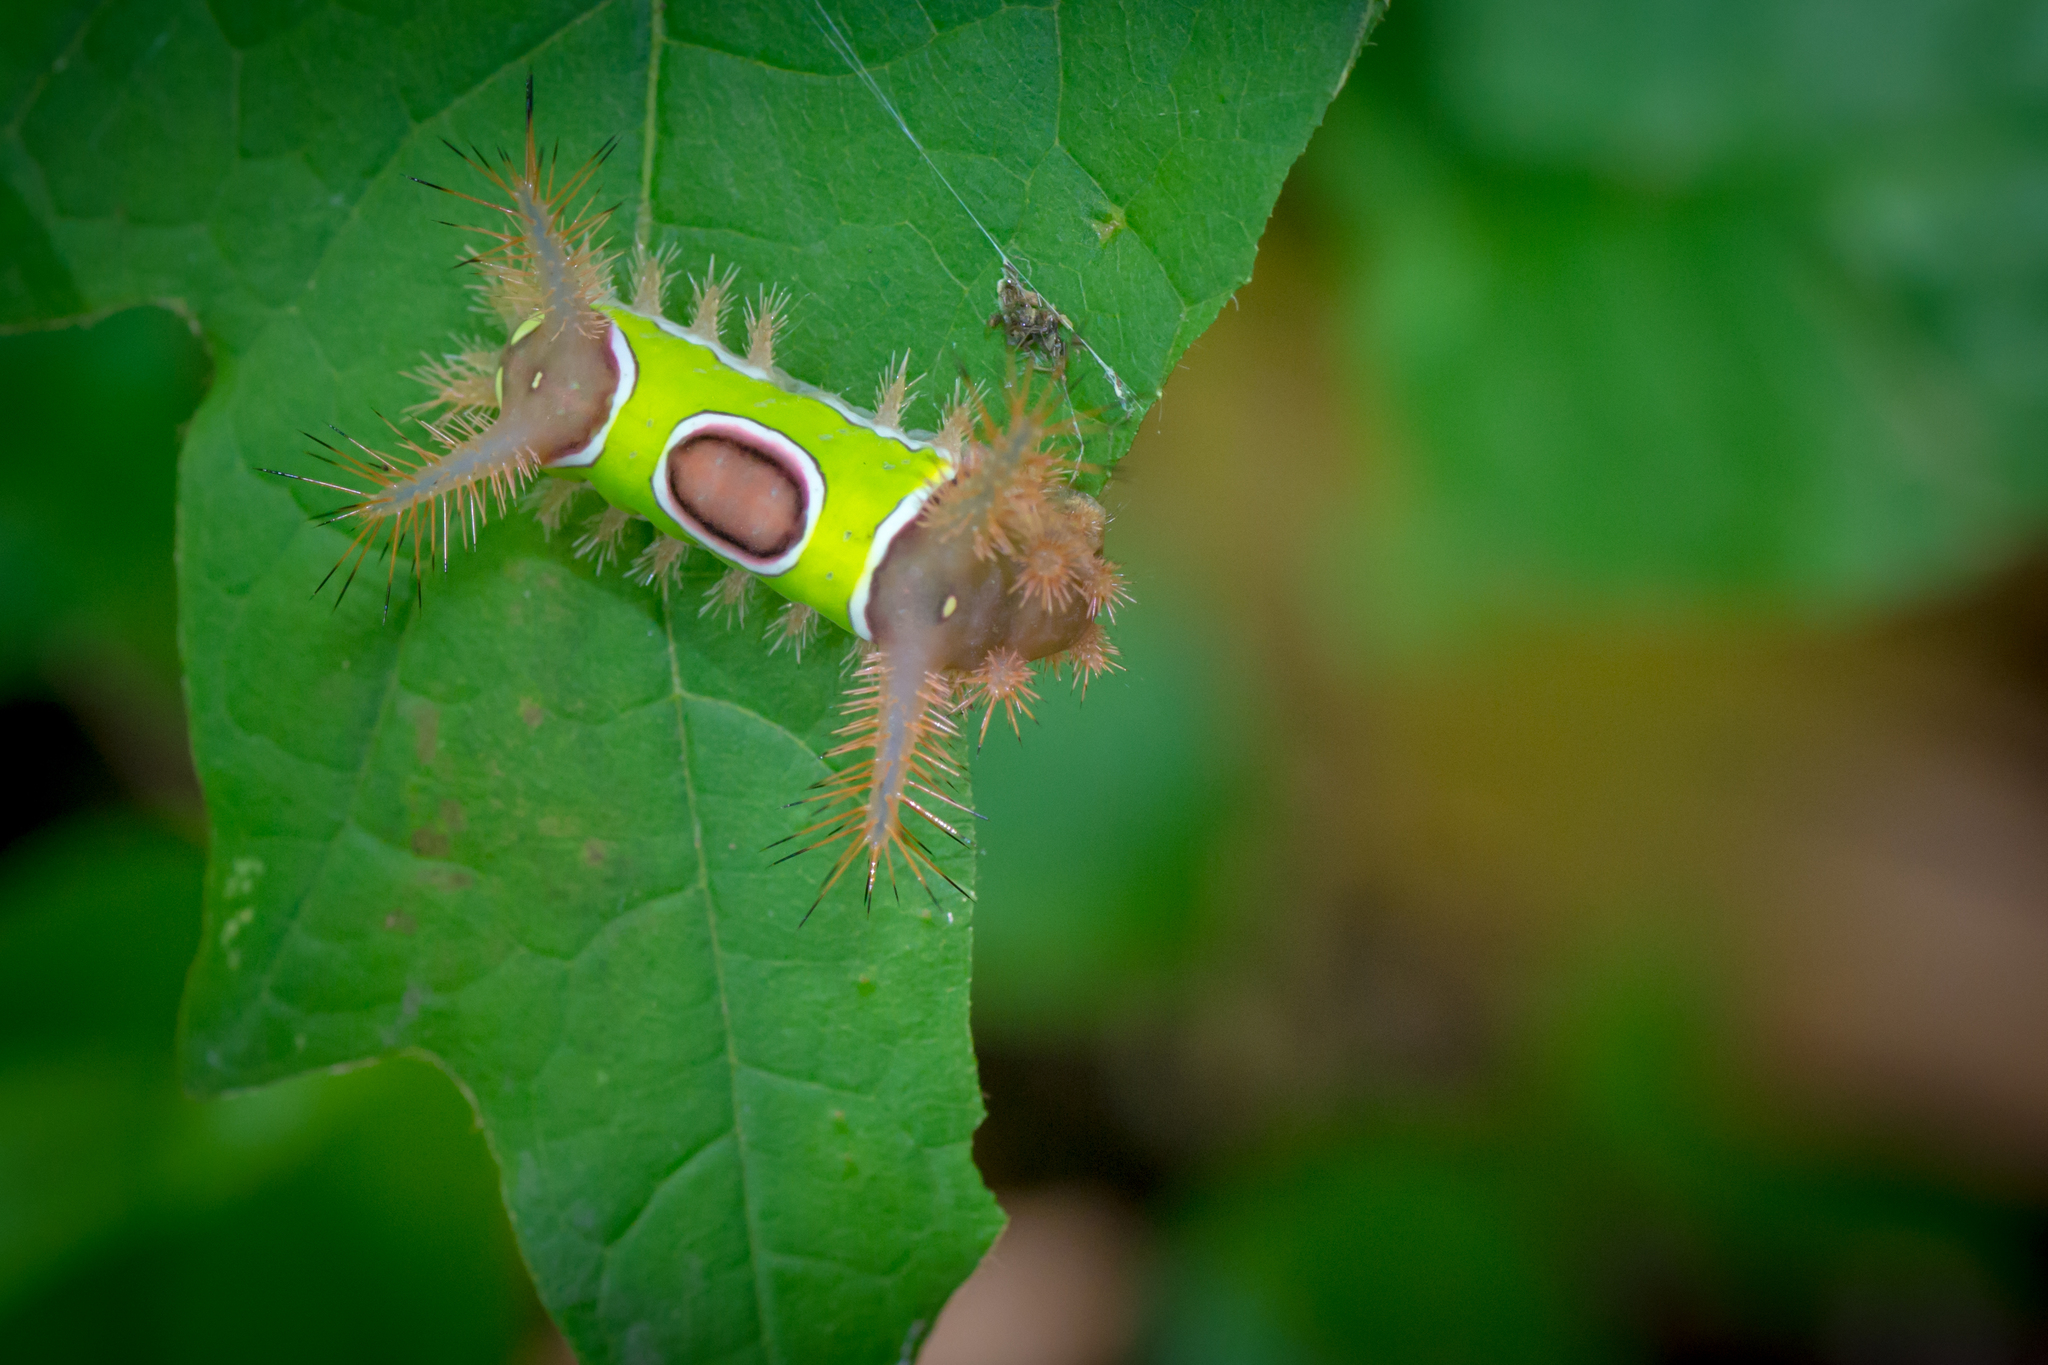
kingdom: Animalia
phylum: Arthropoda
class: Insecta
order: Lepidoptera
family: Limacodidae
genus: Acharia
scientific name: Acharia stimulea
